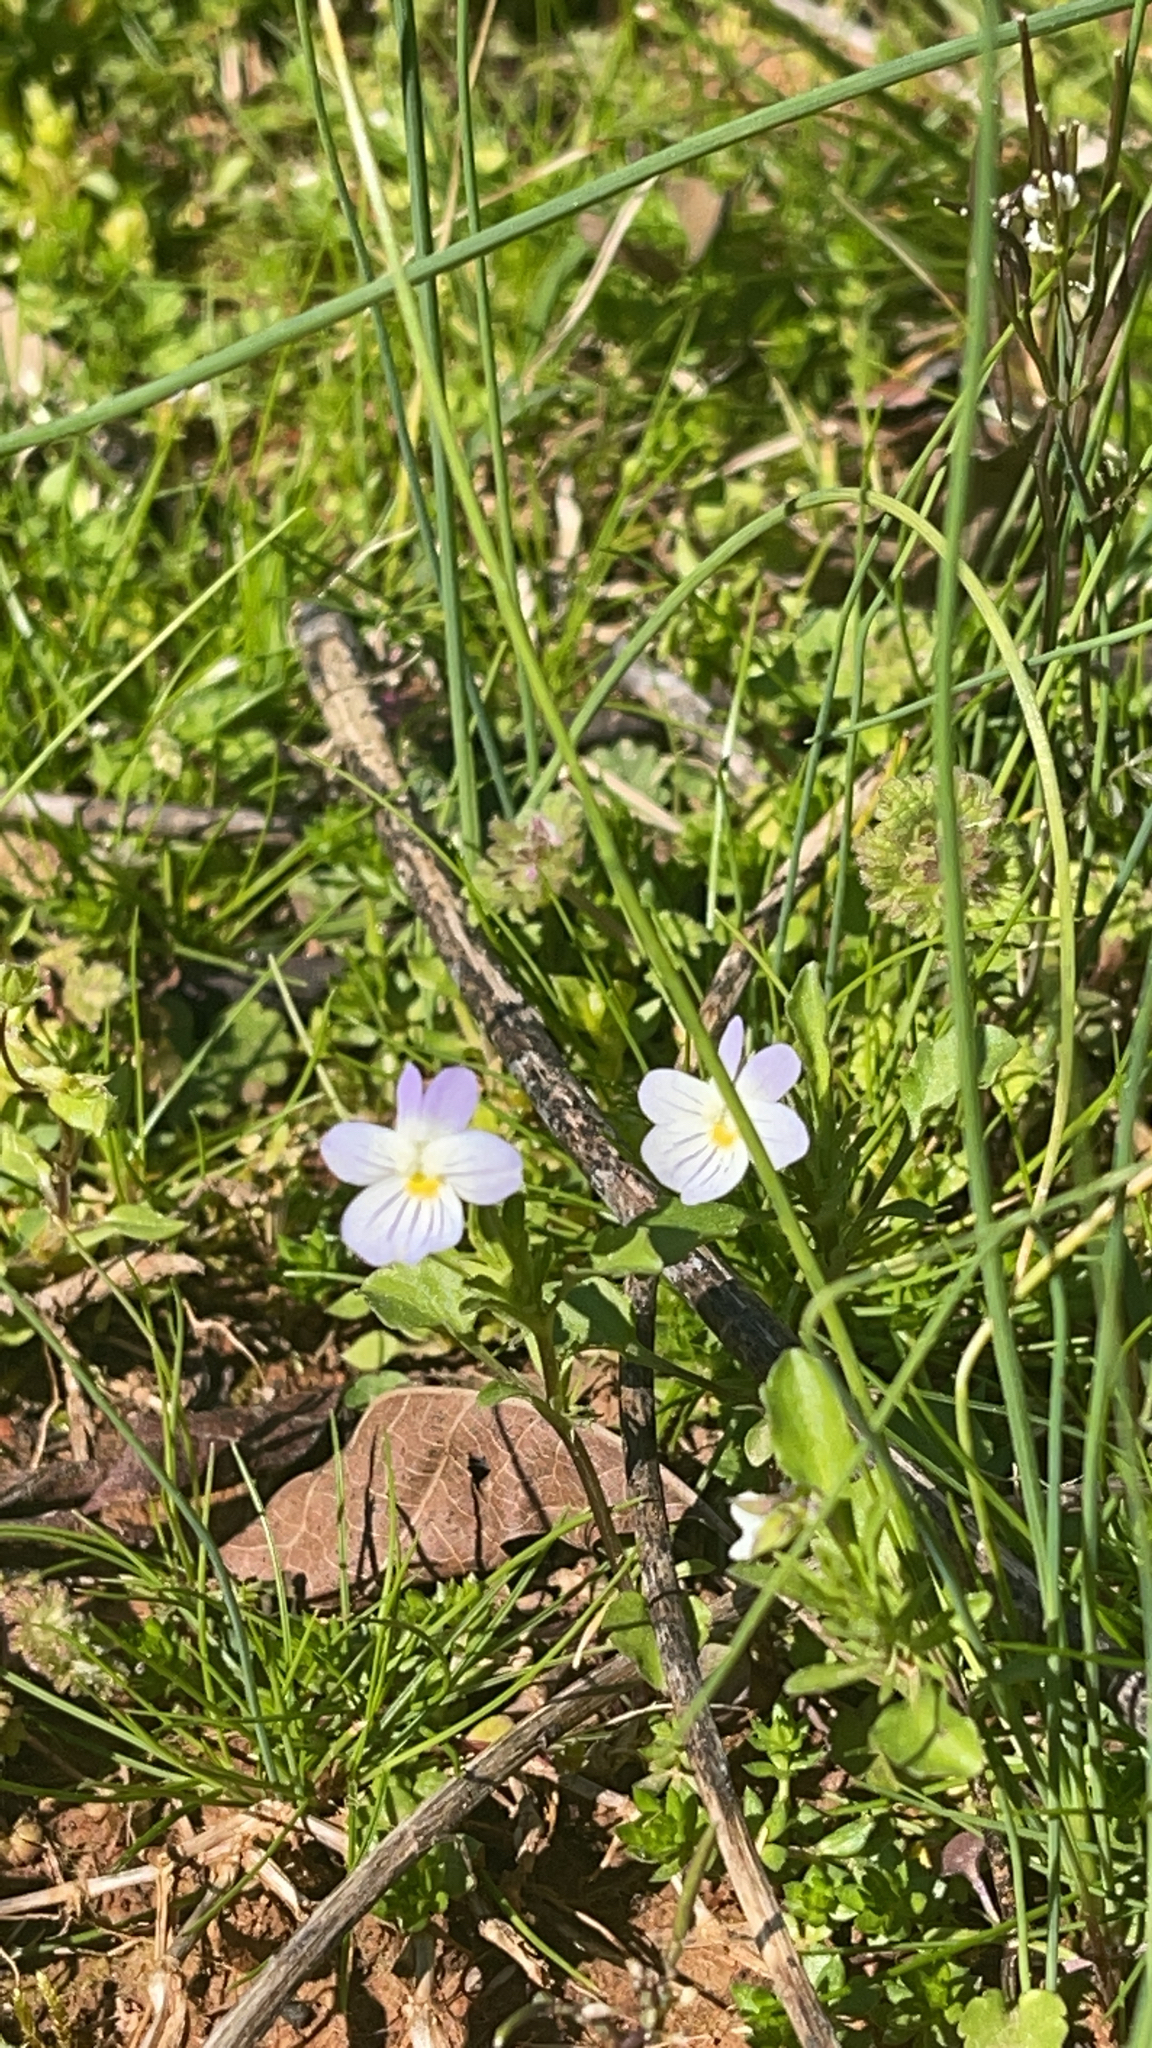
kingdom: Plantae
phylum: Tracheophyta
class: Magnoliopsida
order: Malpighiales
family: Violaceae
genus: Viola
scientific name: Viola rafinesquei
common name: American field pansy
